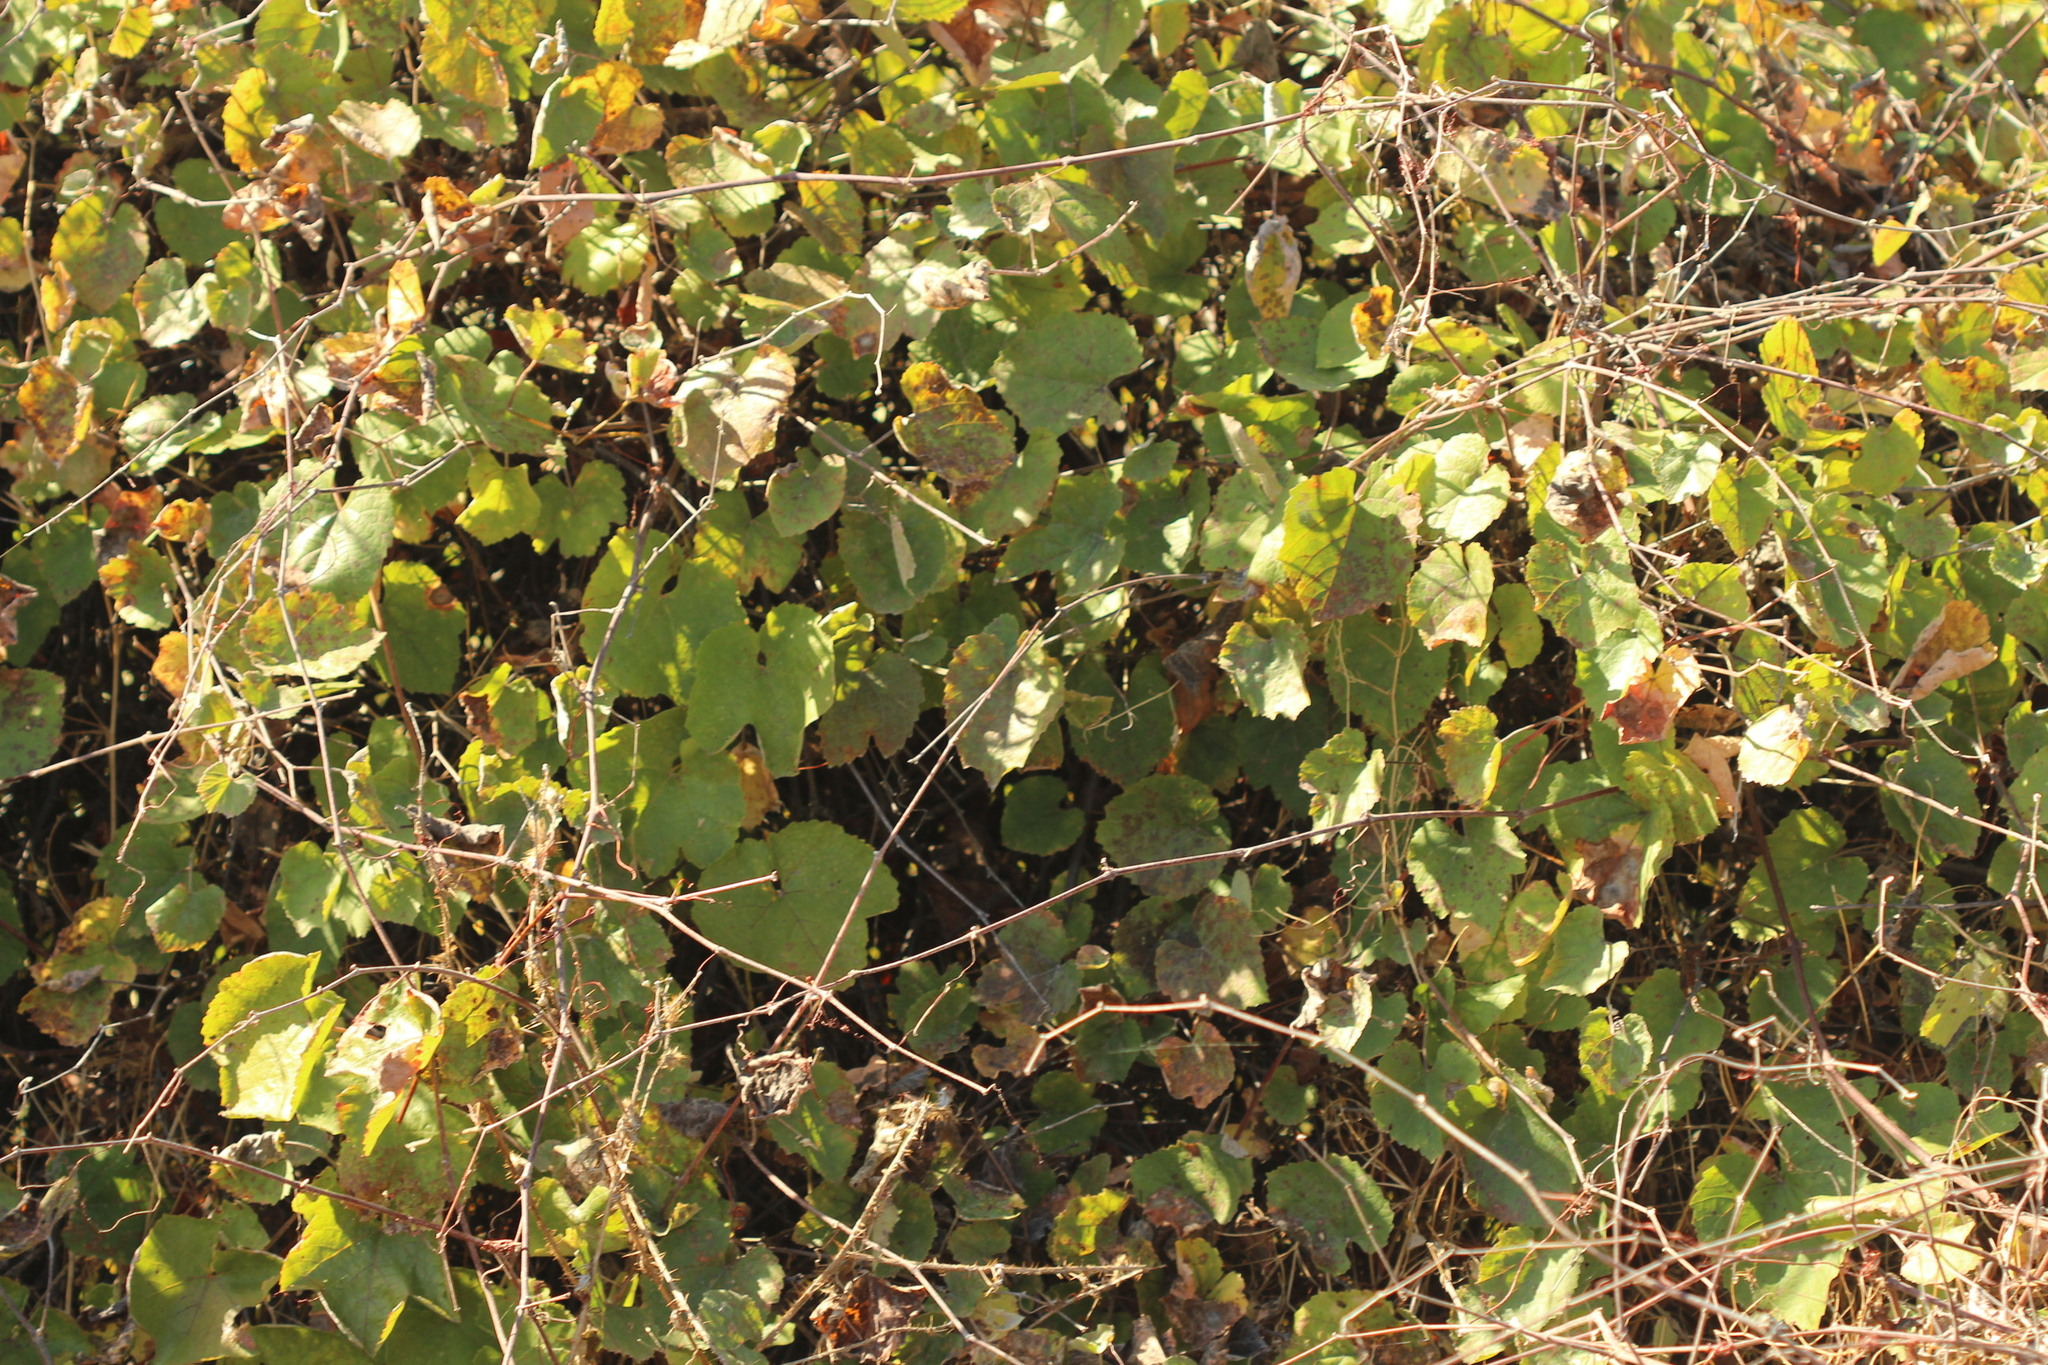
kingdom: Plantae
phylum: Tracheophyta
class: Magnoliopsida
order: Vitales
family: Vitaceae
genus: Vitis
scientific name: Vitis californica
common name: California wild grape
